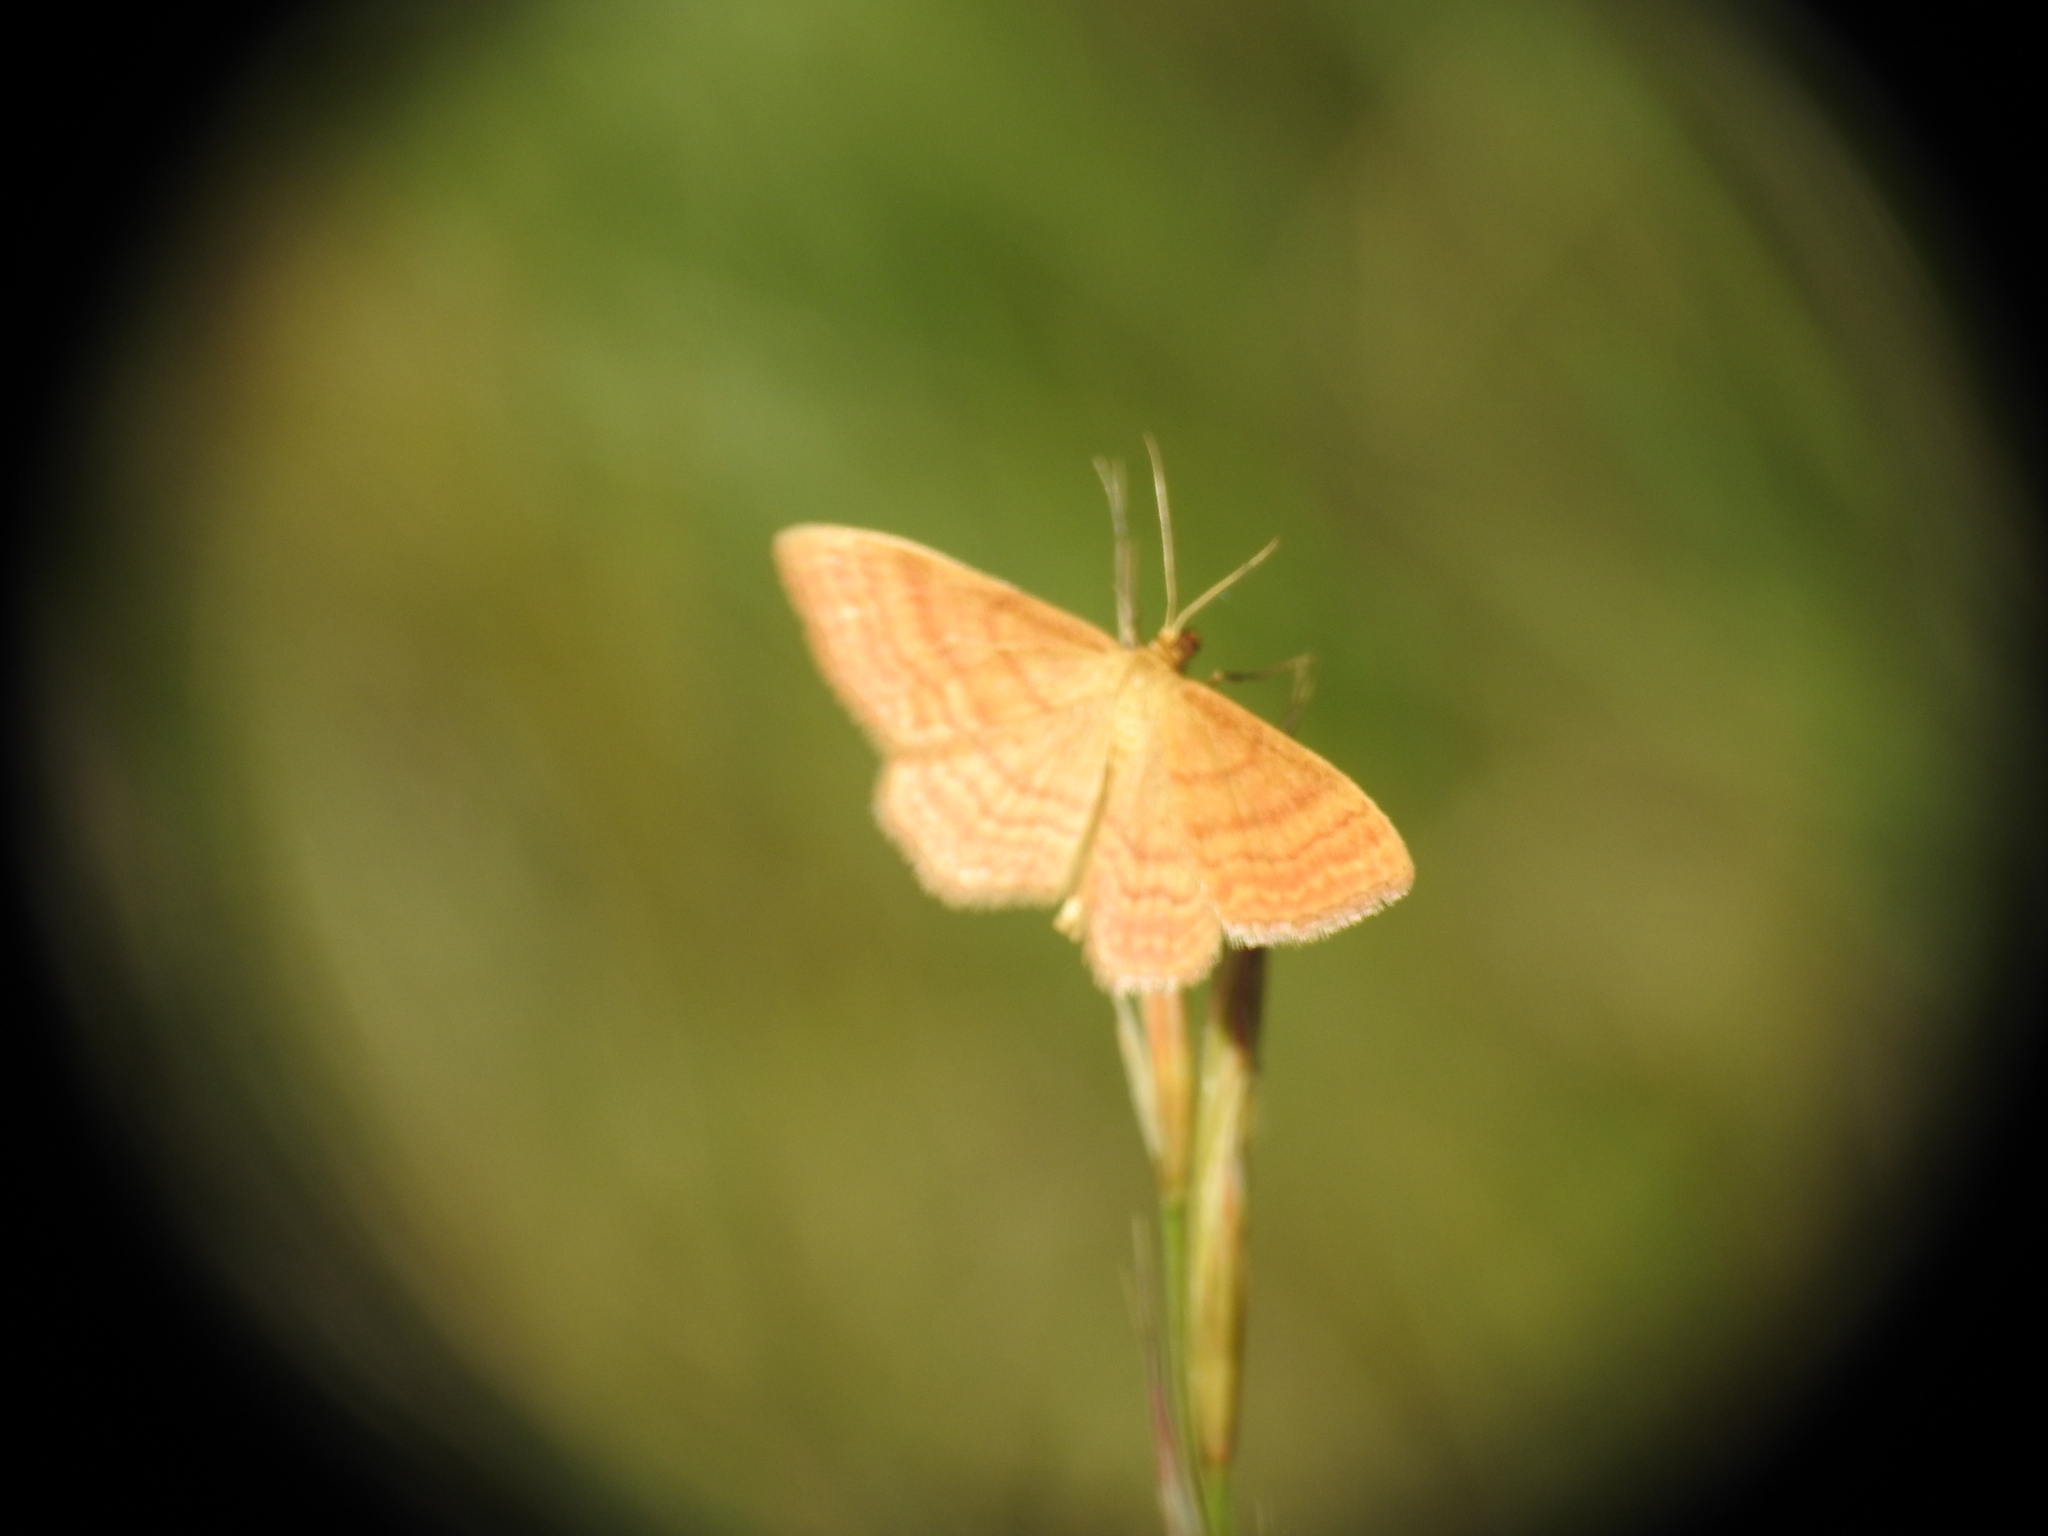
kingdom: Animalia
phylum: Arthropoda
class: Insecta
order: Lepidoptera
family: Geometridae
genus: Idaea
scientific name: Idaea ochrata
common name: Bright wave
